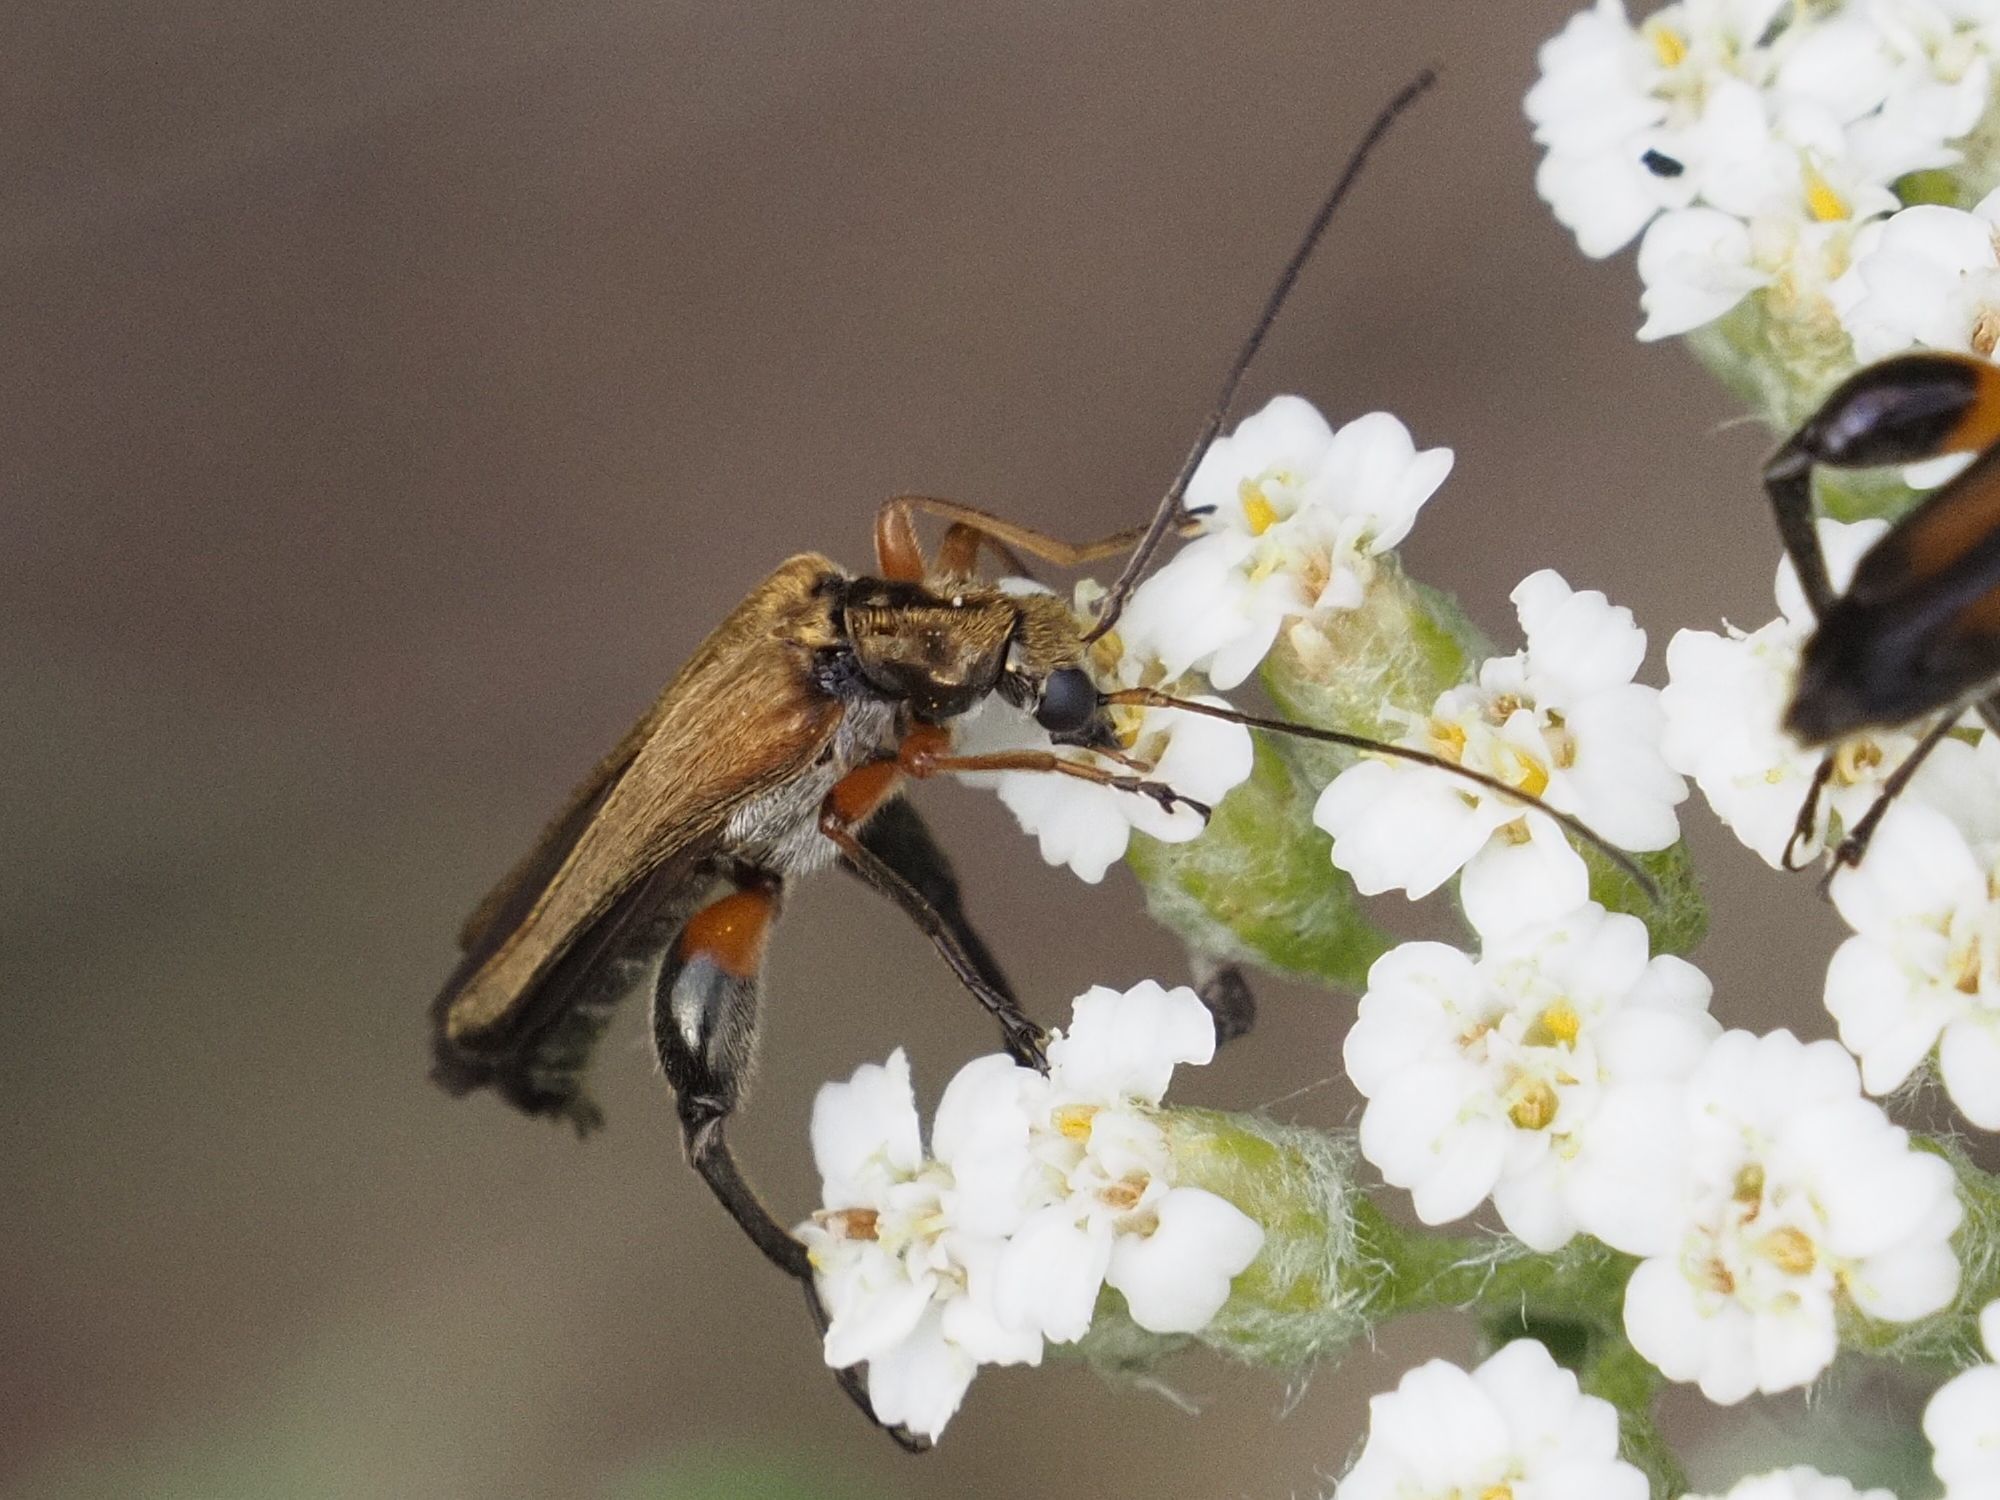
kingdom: Animalia
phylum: Arthropoda
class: Insecta
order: Coleoptera
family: Oedemeridae
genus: Oedemera
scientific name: Oedemera podagrariae
